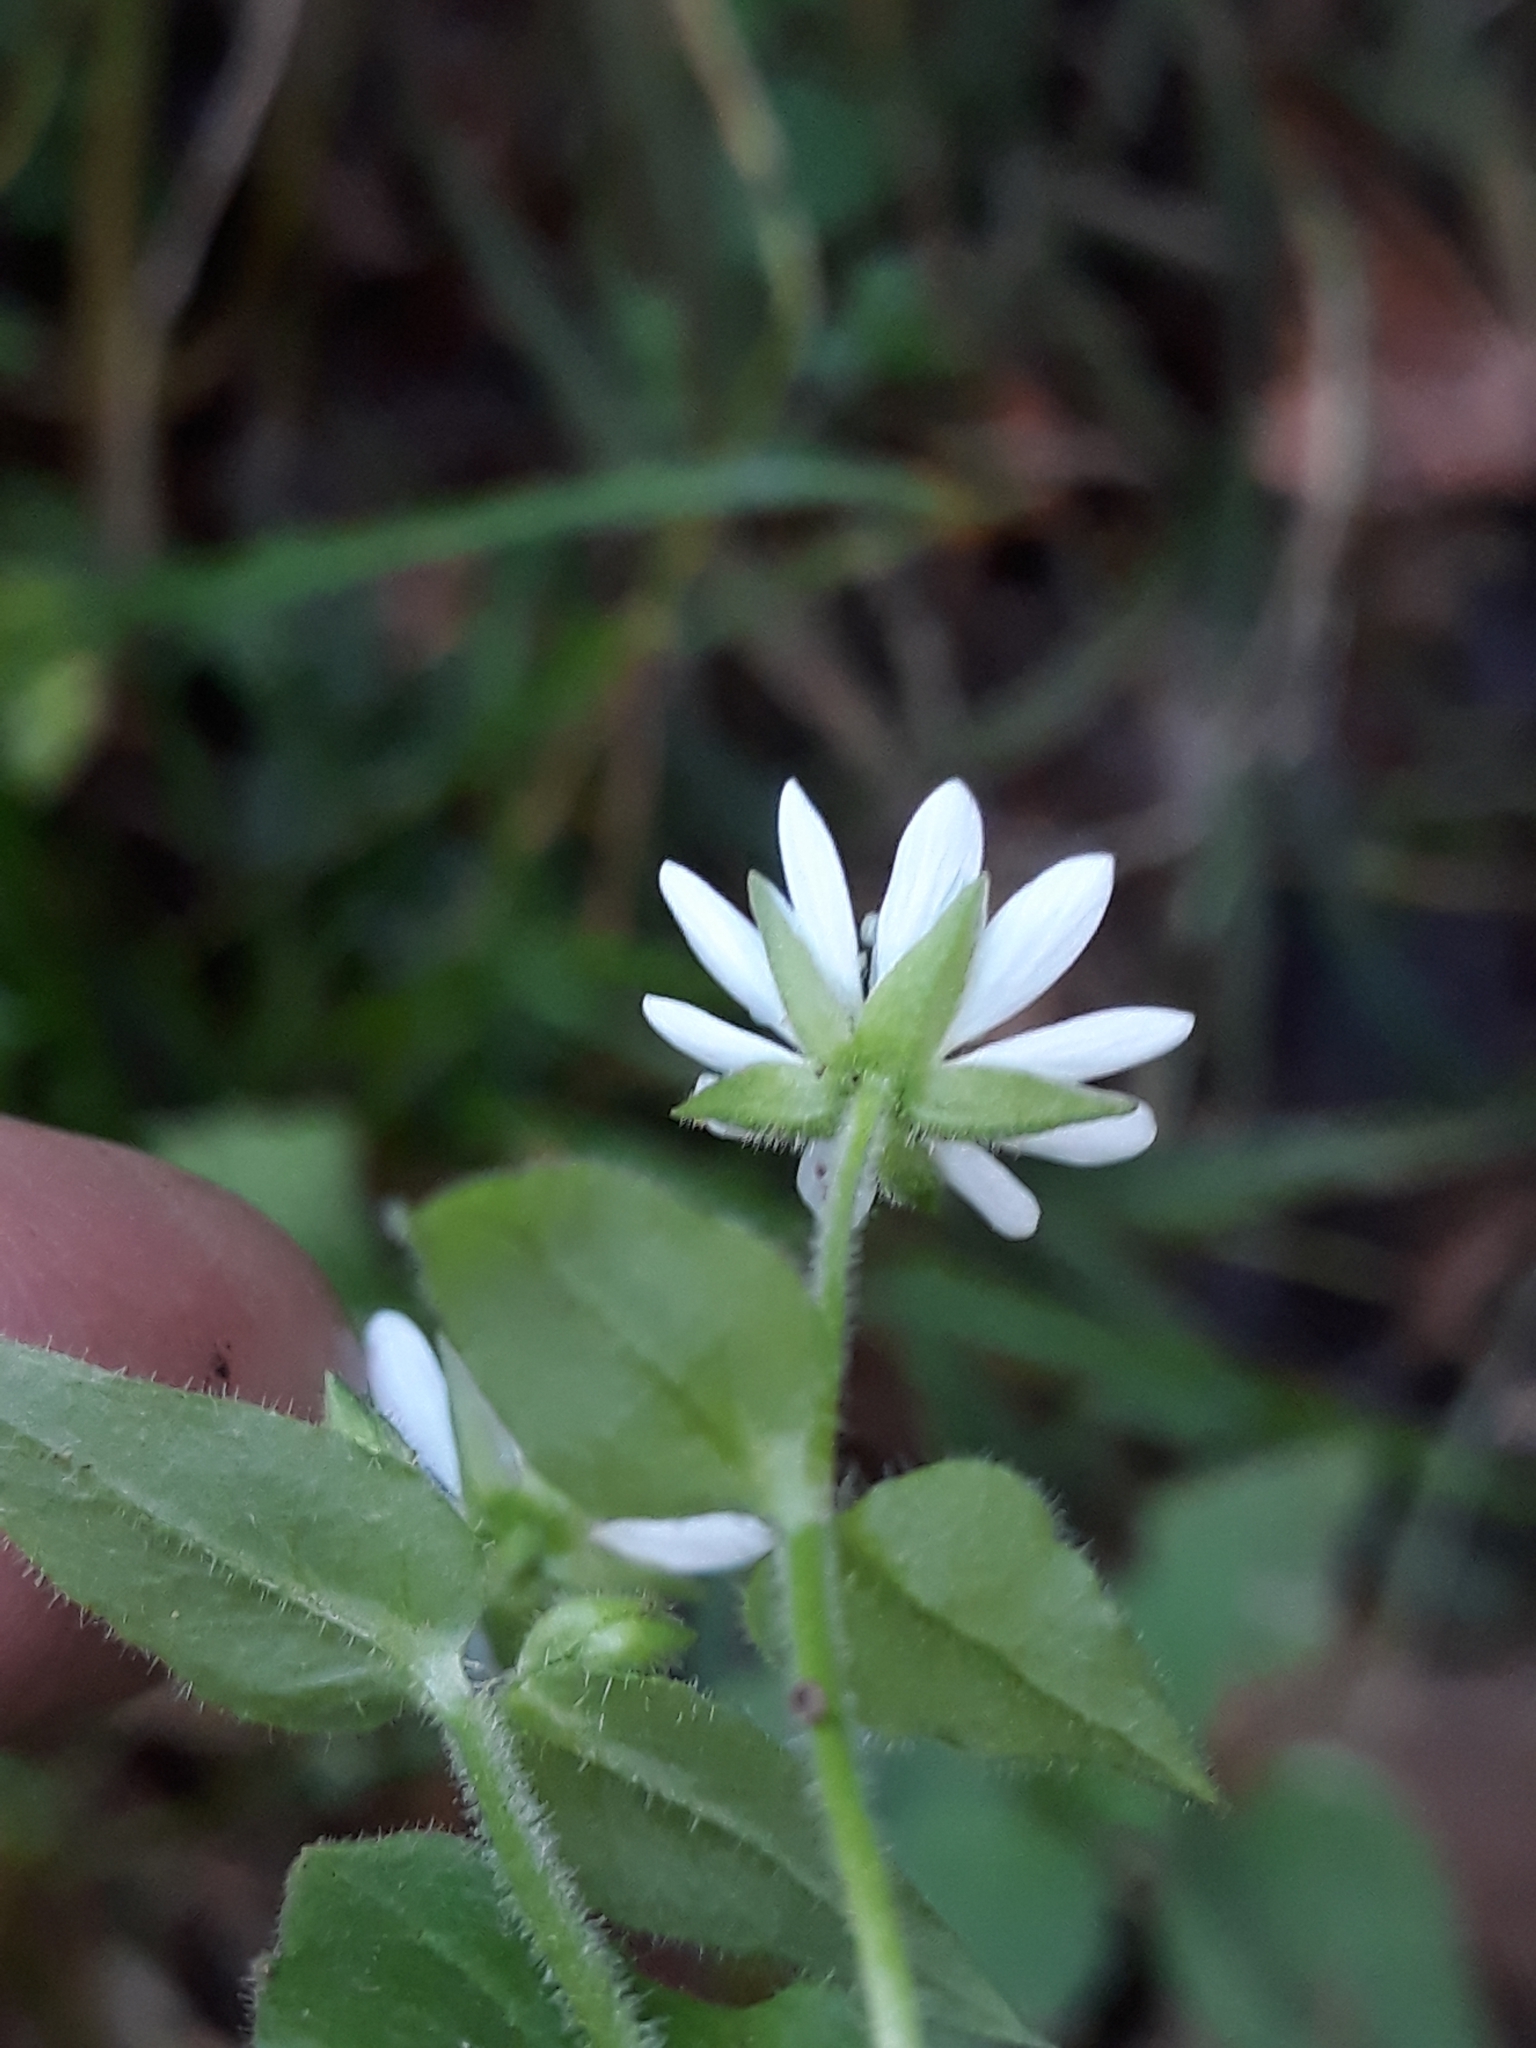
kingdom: Plantae
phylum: Tracheophyta
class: Magnoliopsida
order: Caryophyllales
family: Caryophyllaceae
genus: Stellaria
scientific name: Stellaria aquatica
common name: Water chickweed
